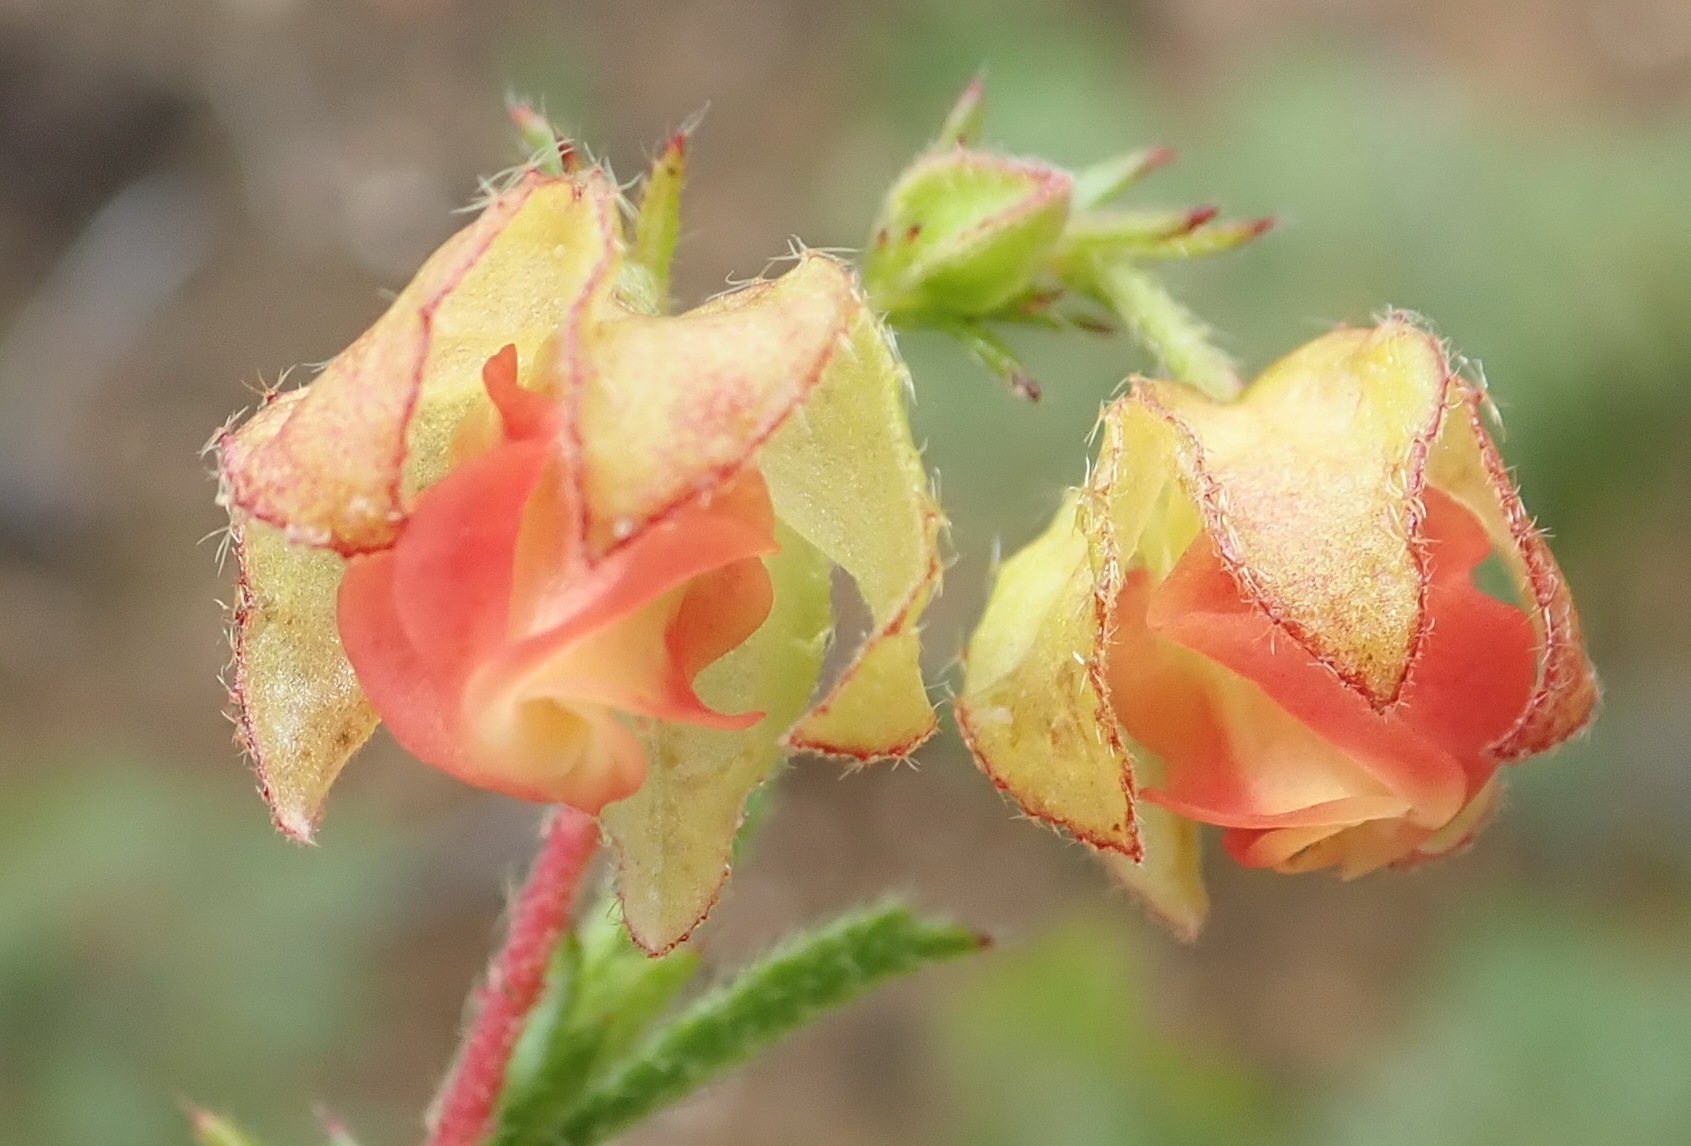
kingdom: Plantae
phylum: Tracheophyta
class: Magnoliopsida
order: Malvales
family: Malvaceae
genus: Hermannia
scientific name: Hermannia angularis
